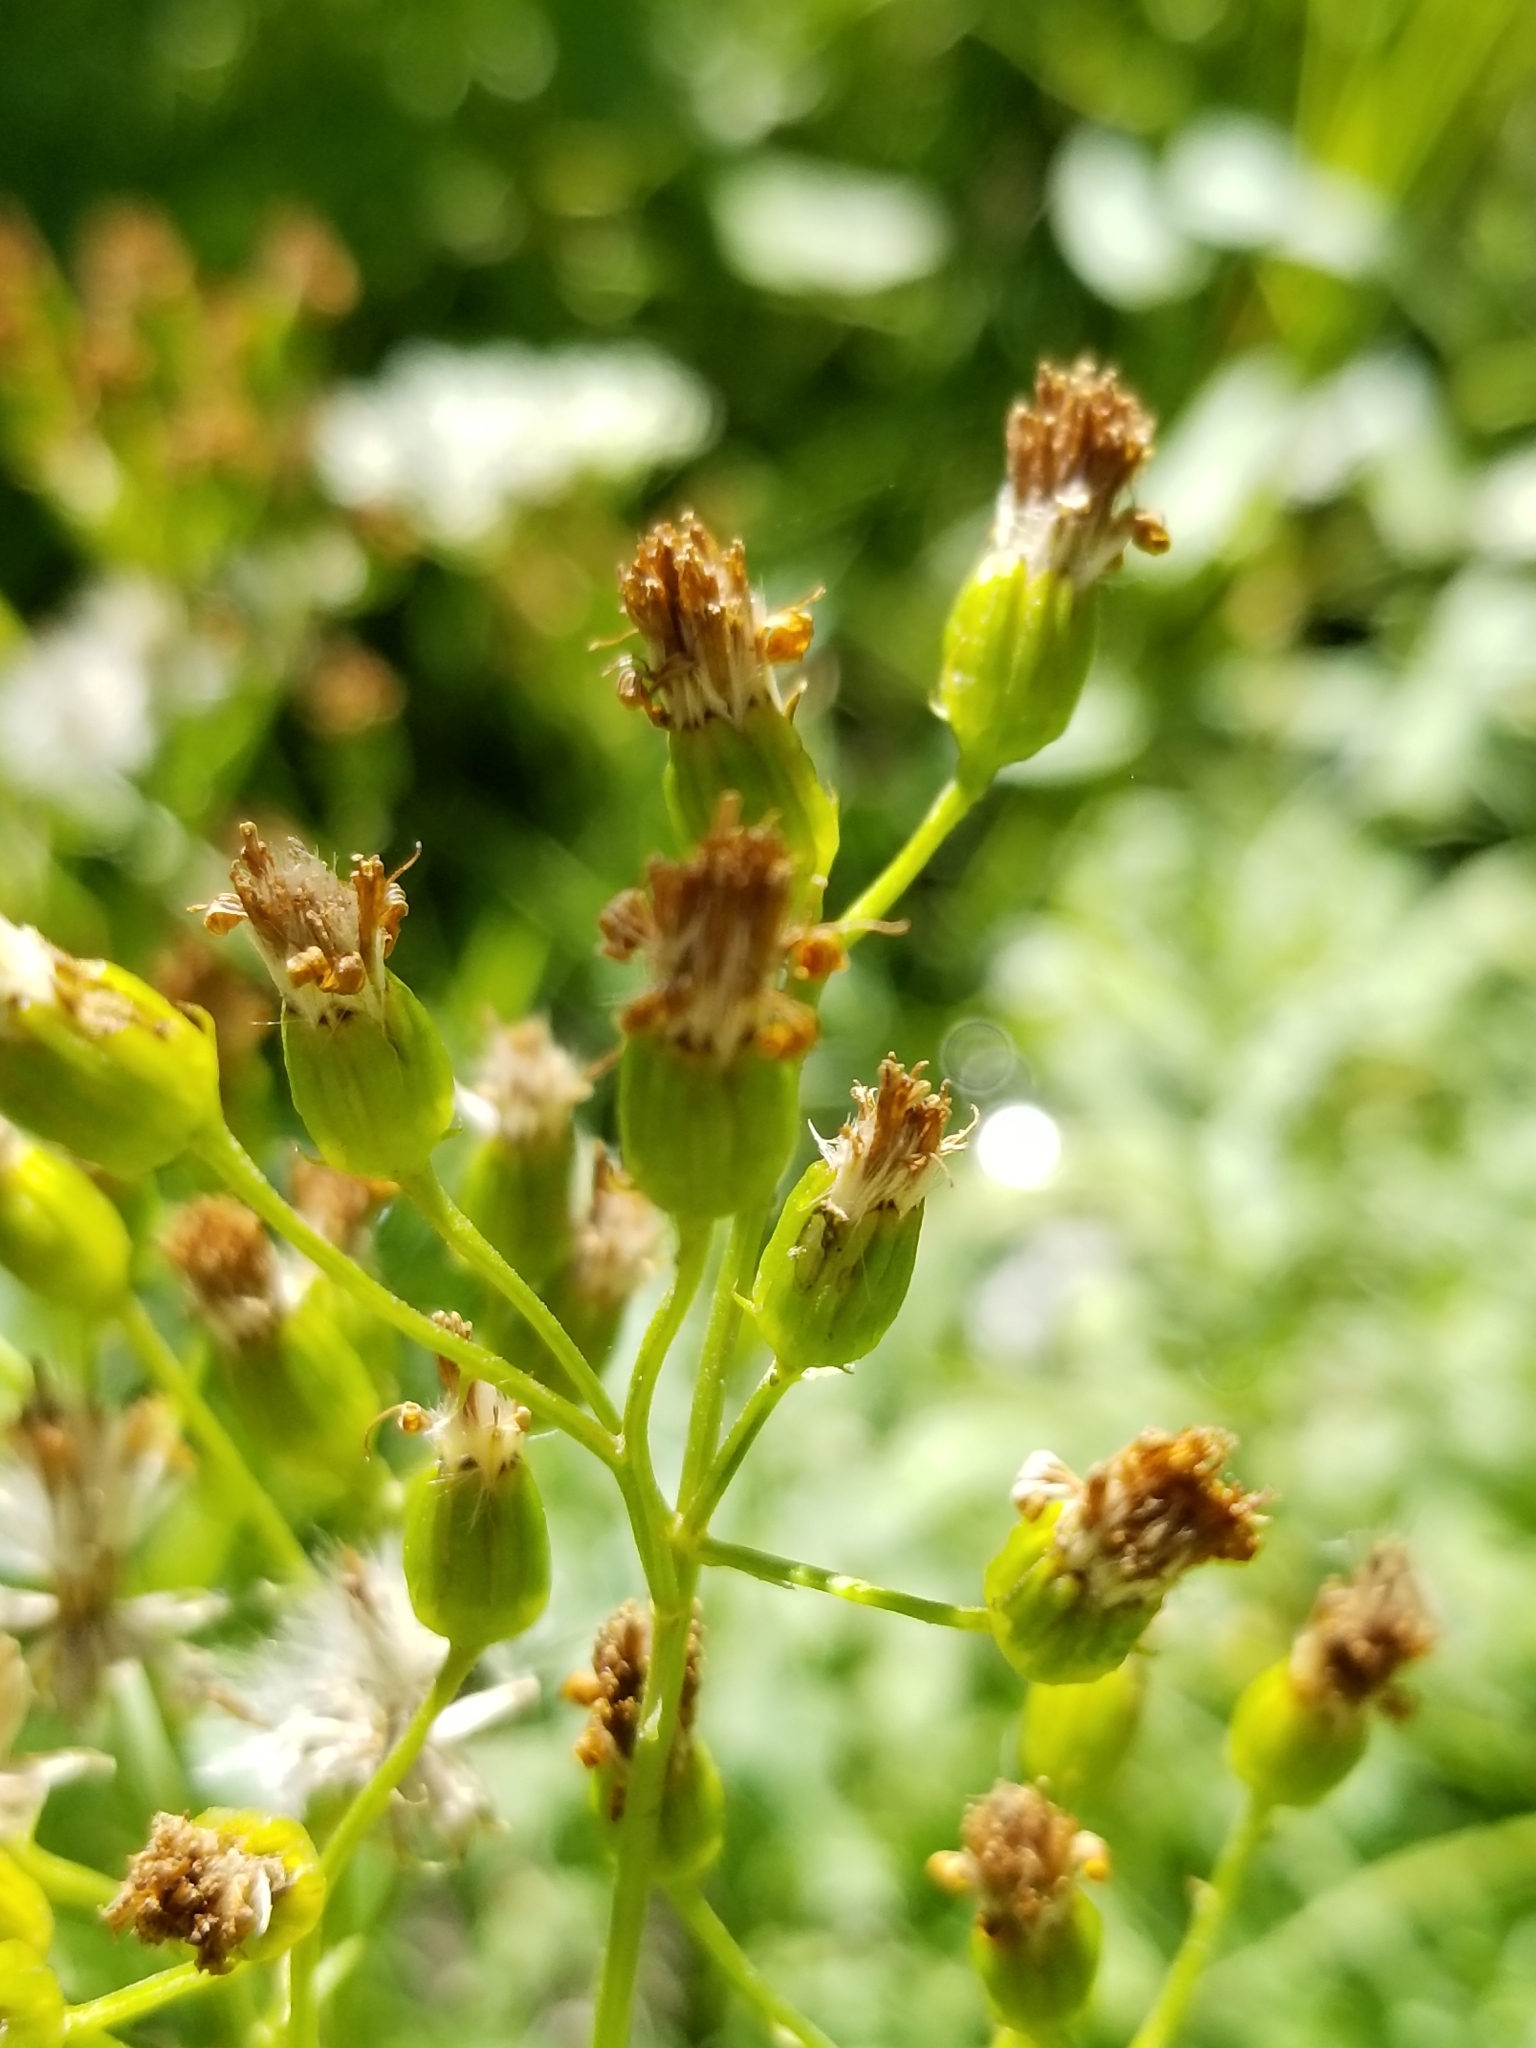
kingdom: Plantae
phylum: Tracheophyta
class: Magnoliopsida
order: Asterales
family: Asteraceae
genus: Senecio
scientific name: Senecio triangularis
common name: Arrowleaf butterweed
